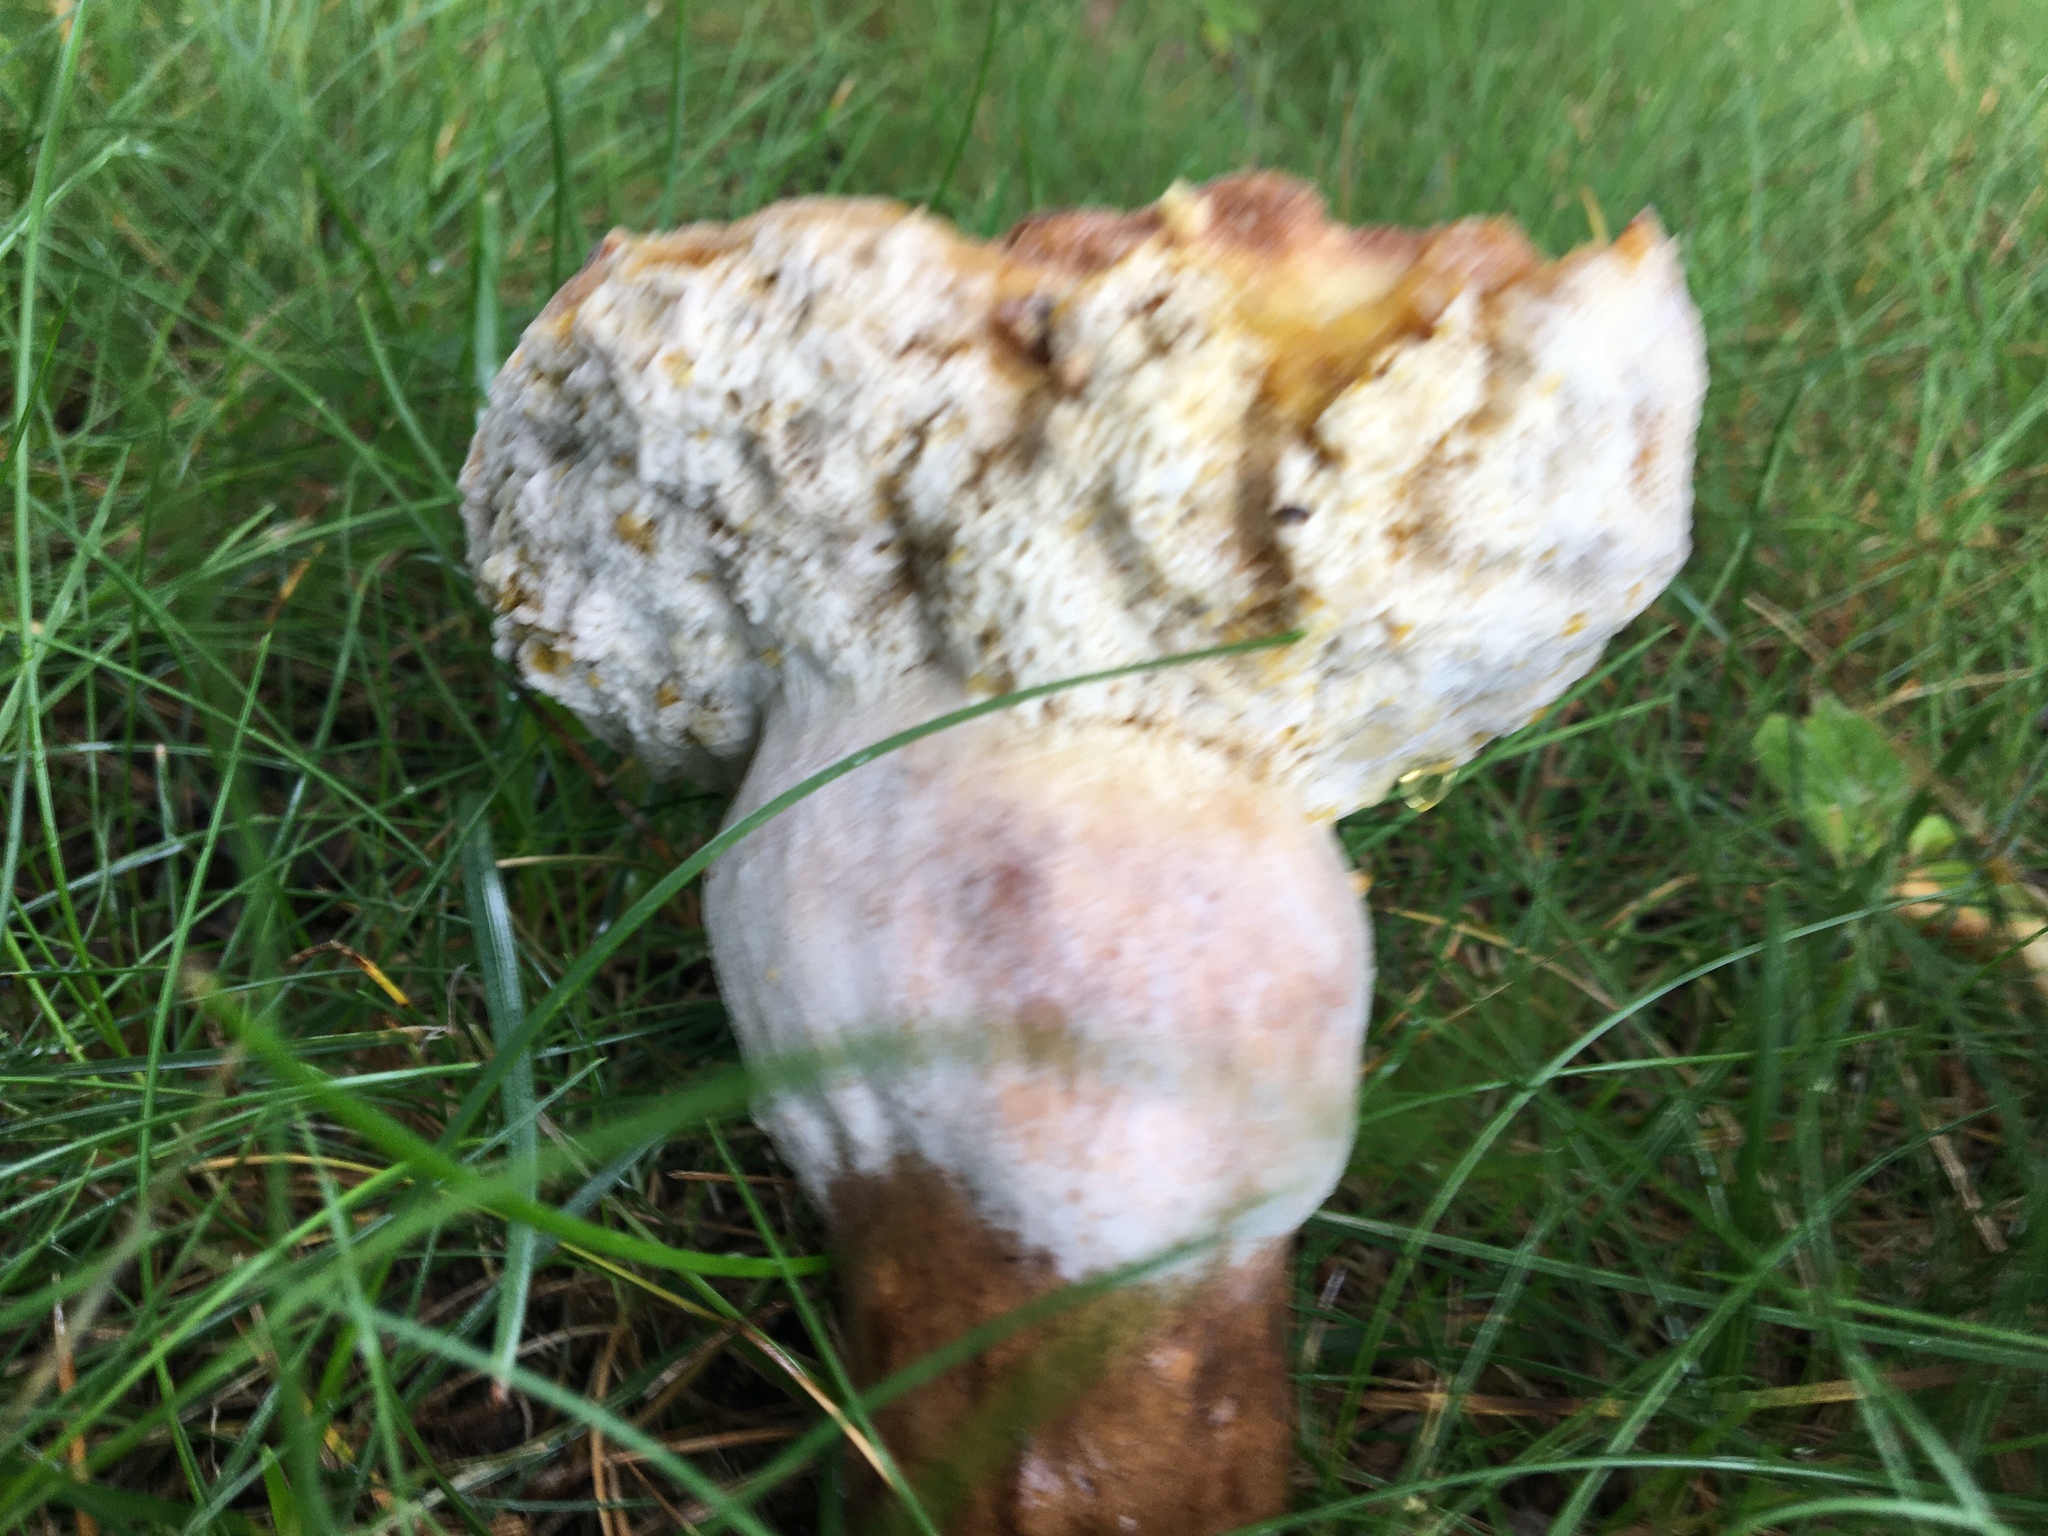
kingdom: Fungi
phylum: Basidiomycota
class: Agaricomycetes
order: Boletales
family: Boletaceae
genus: Tylopilus
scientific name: Tylopilus ferrugineus
